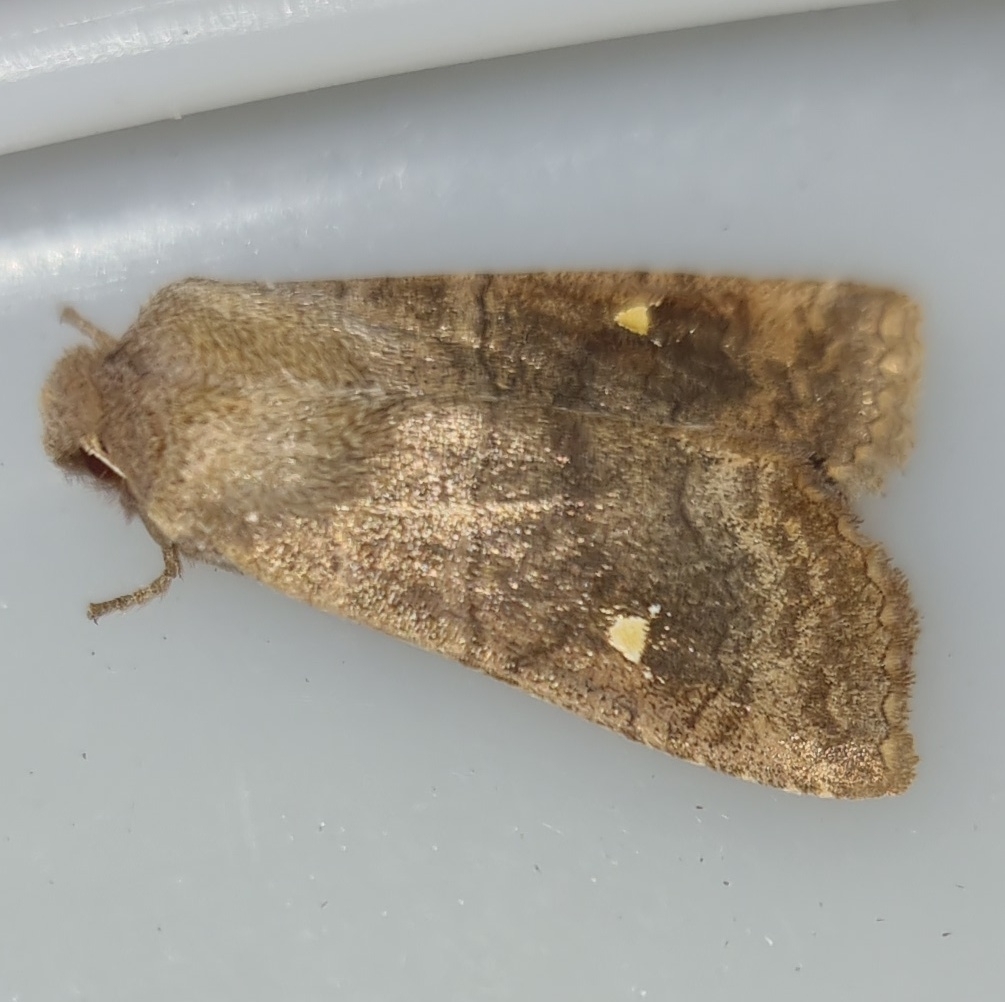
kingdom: Animalia
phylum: Arthropoda
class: Insecta
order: Lepidoptera
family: Noctuidae
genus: Eupsilia
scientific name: Eupsilia transversa
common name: Satellite
